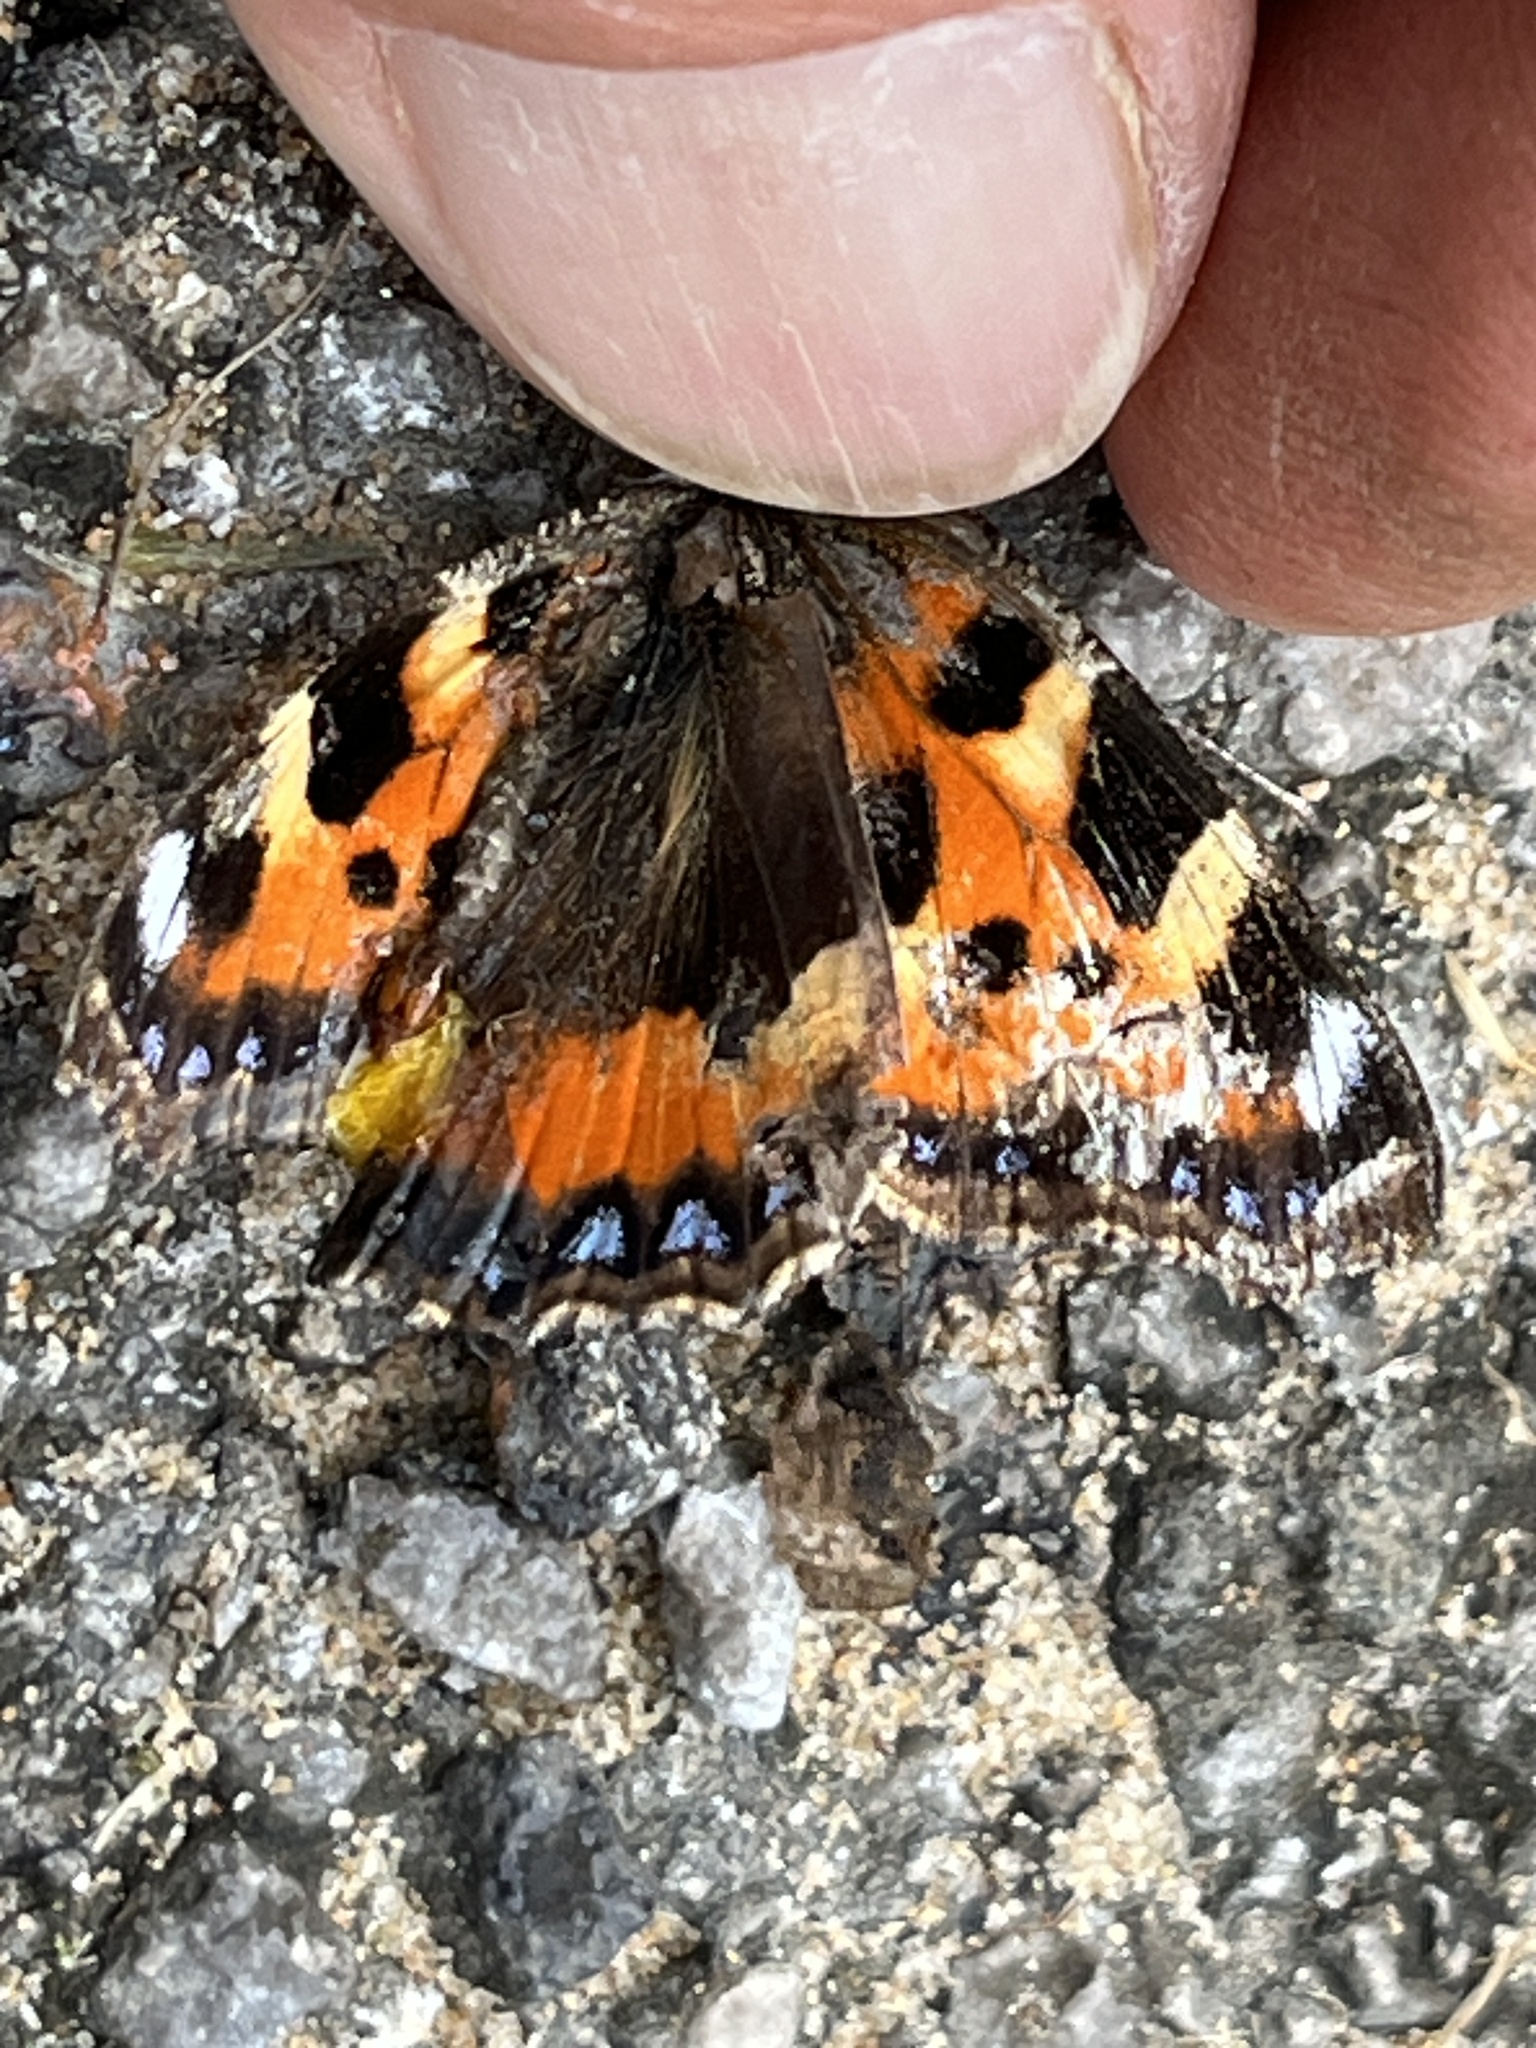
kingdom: Animalia
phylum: Arthropoda
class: Insecta
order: Lepidoptera
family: Nymphalidae
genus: Aglais
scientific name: Aglais urticae
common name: Small tortoiseshell
